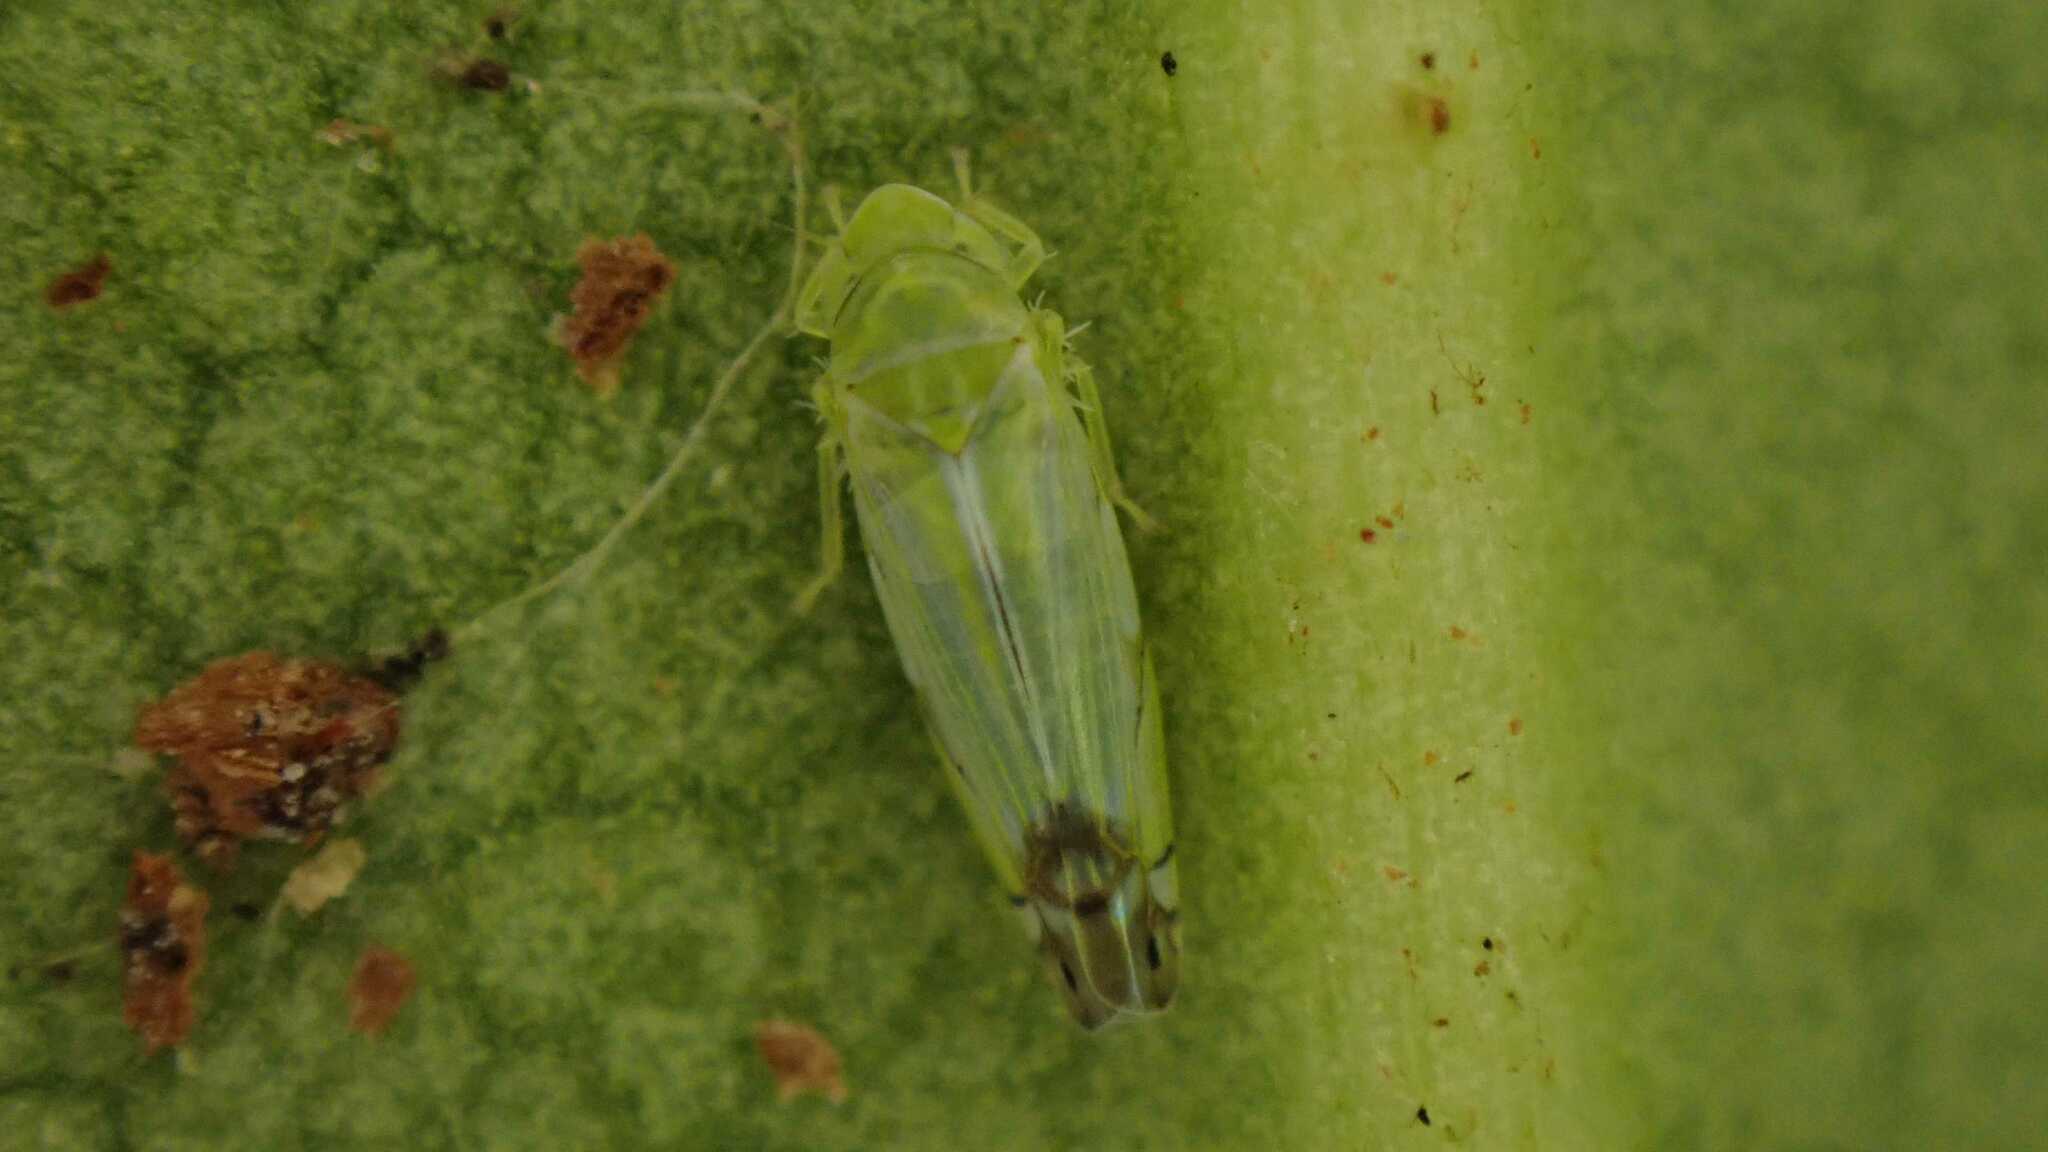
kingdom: Animalia
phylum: Arthropoda
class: Insecta
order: Hemiptera
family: Cicadellidae
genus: Zyginella
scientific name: Zyginella pulchra
